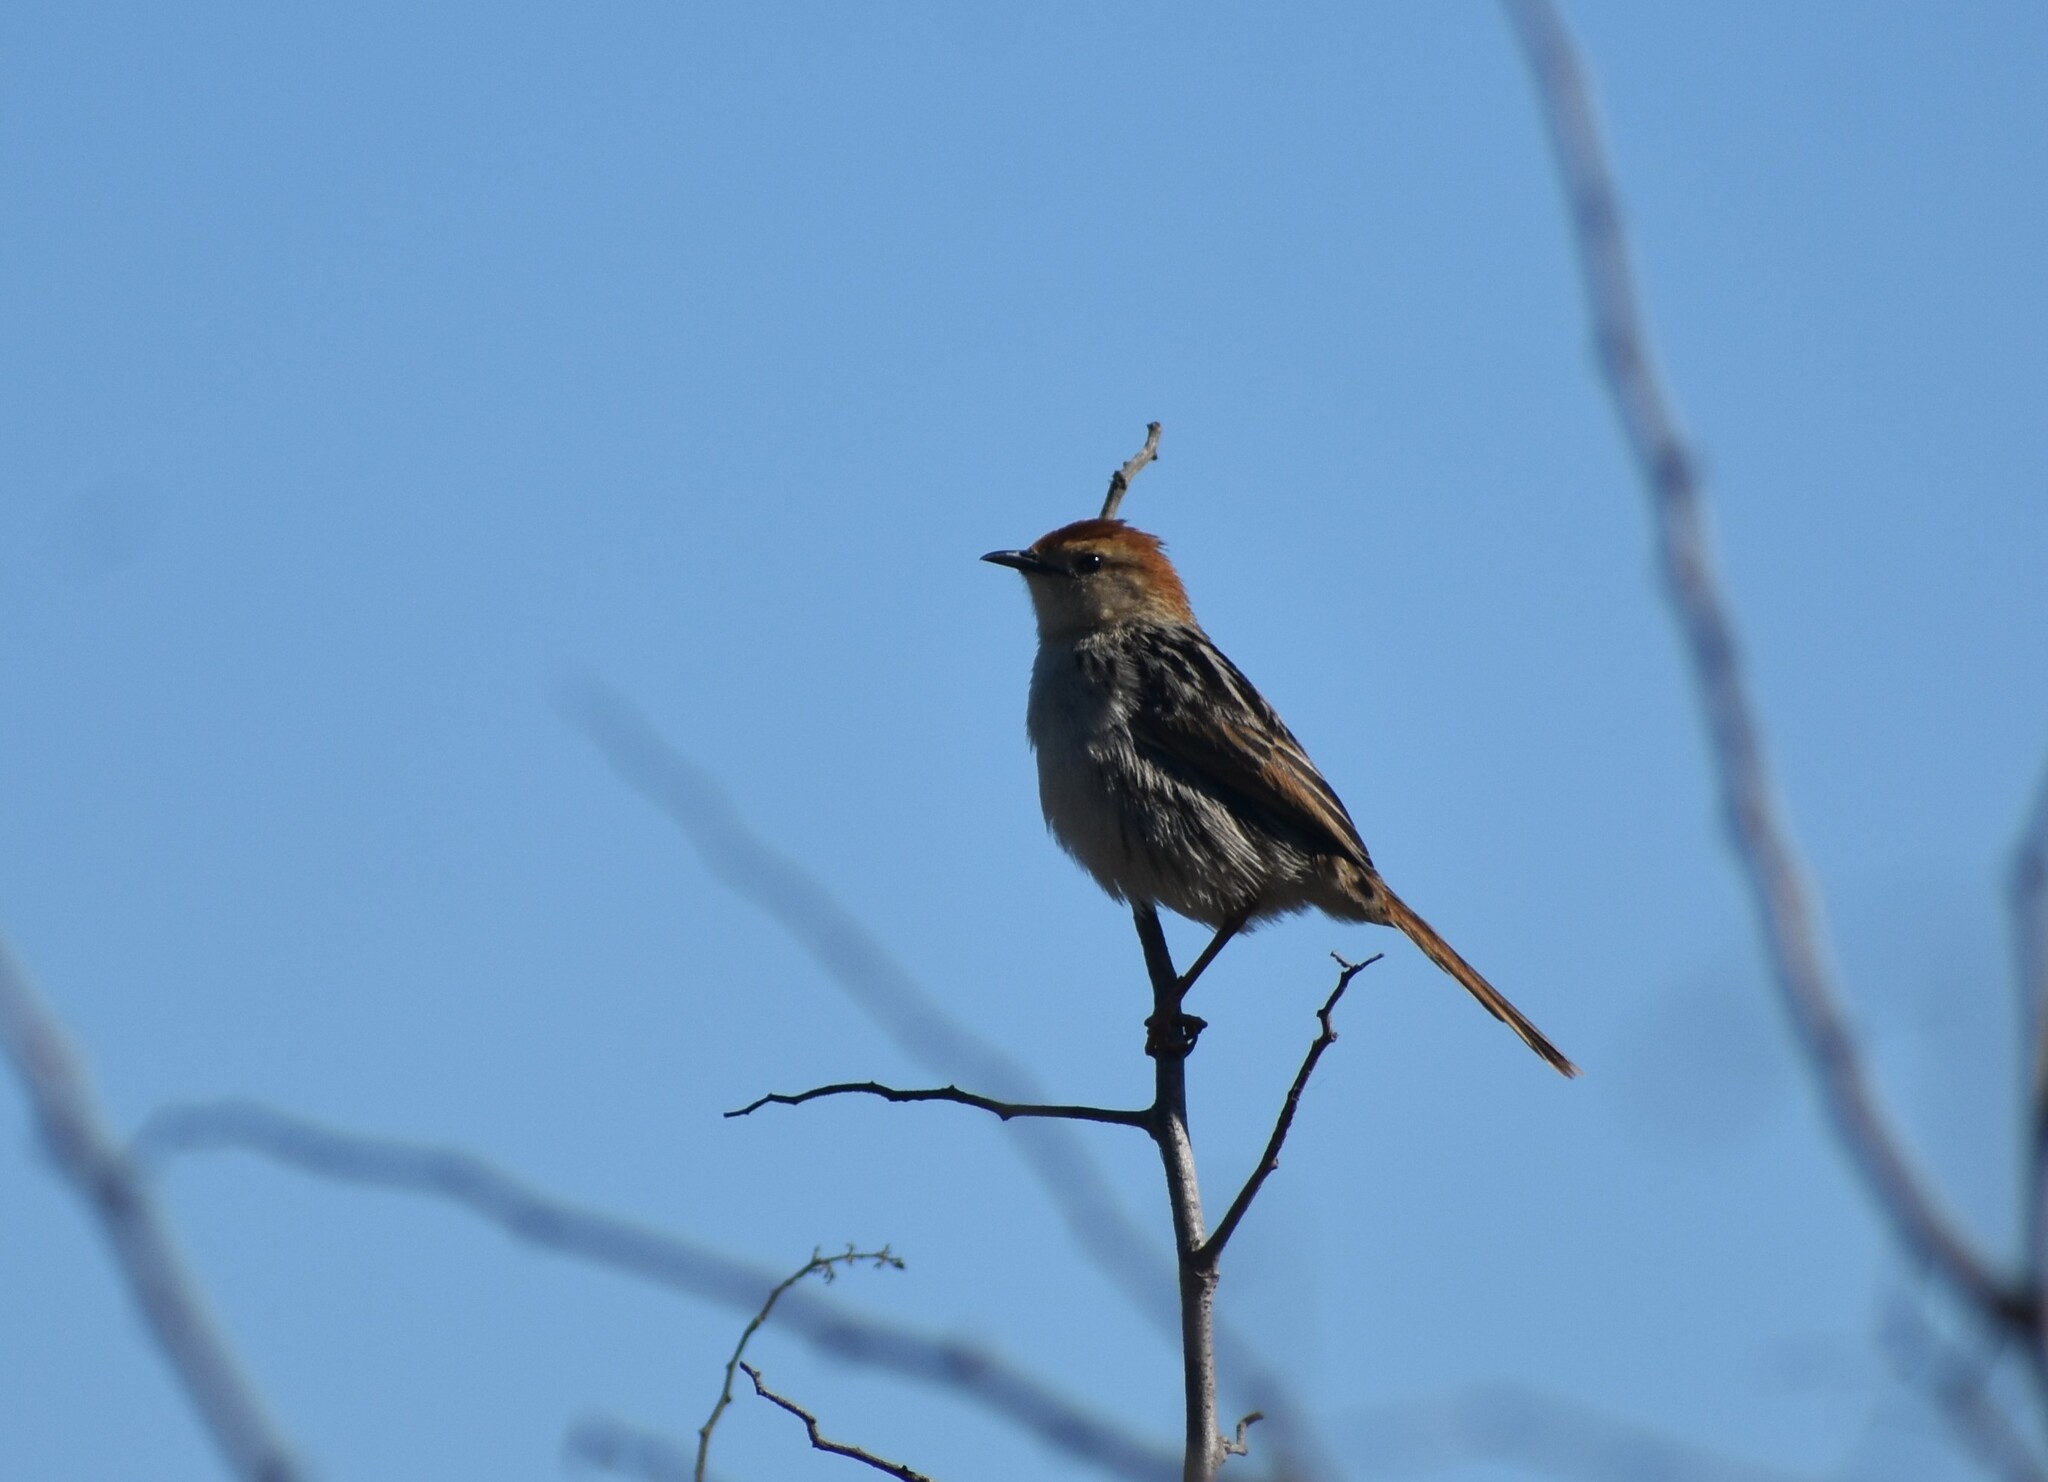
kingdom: Animalia
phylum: Chordata
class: Aves
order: Passeriformes
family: Cisticolidae
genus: Cisticola
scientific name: Cisticola tinniens
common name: Levaillant's cisticola
